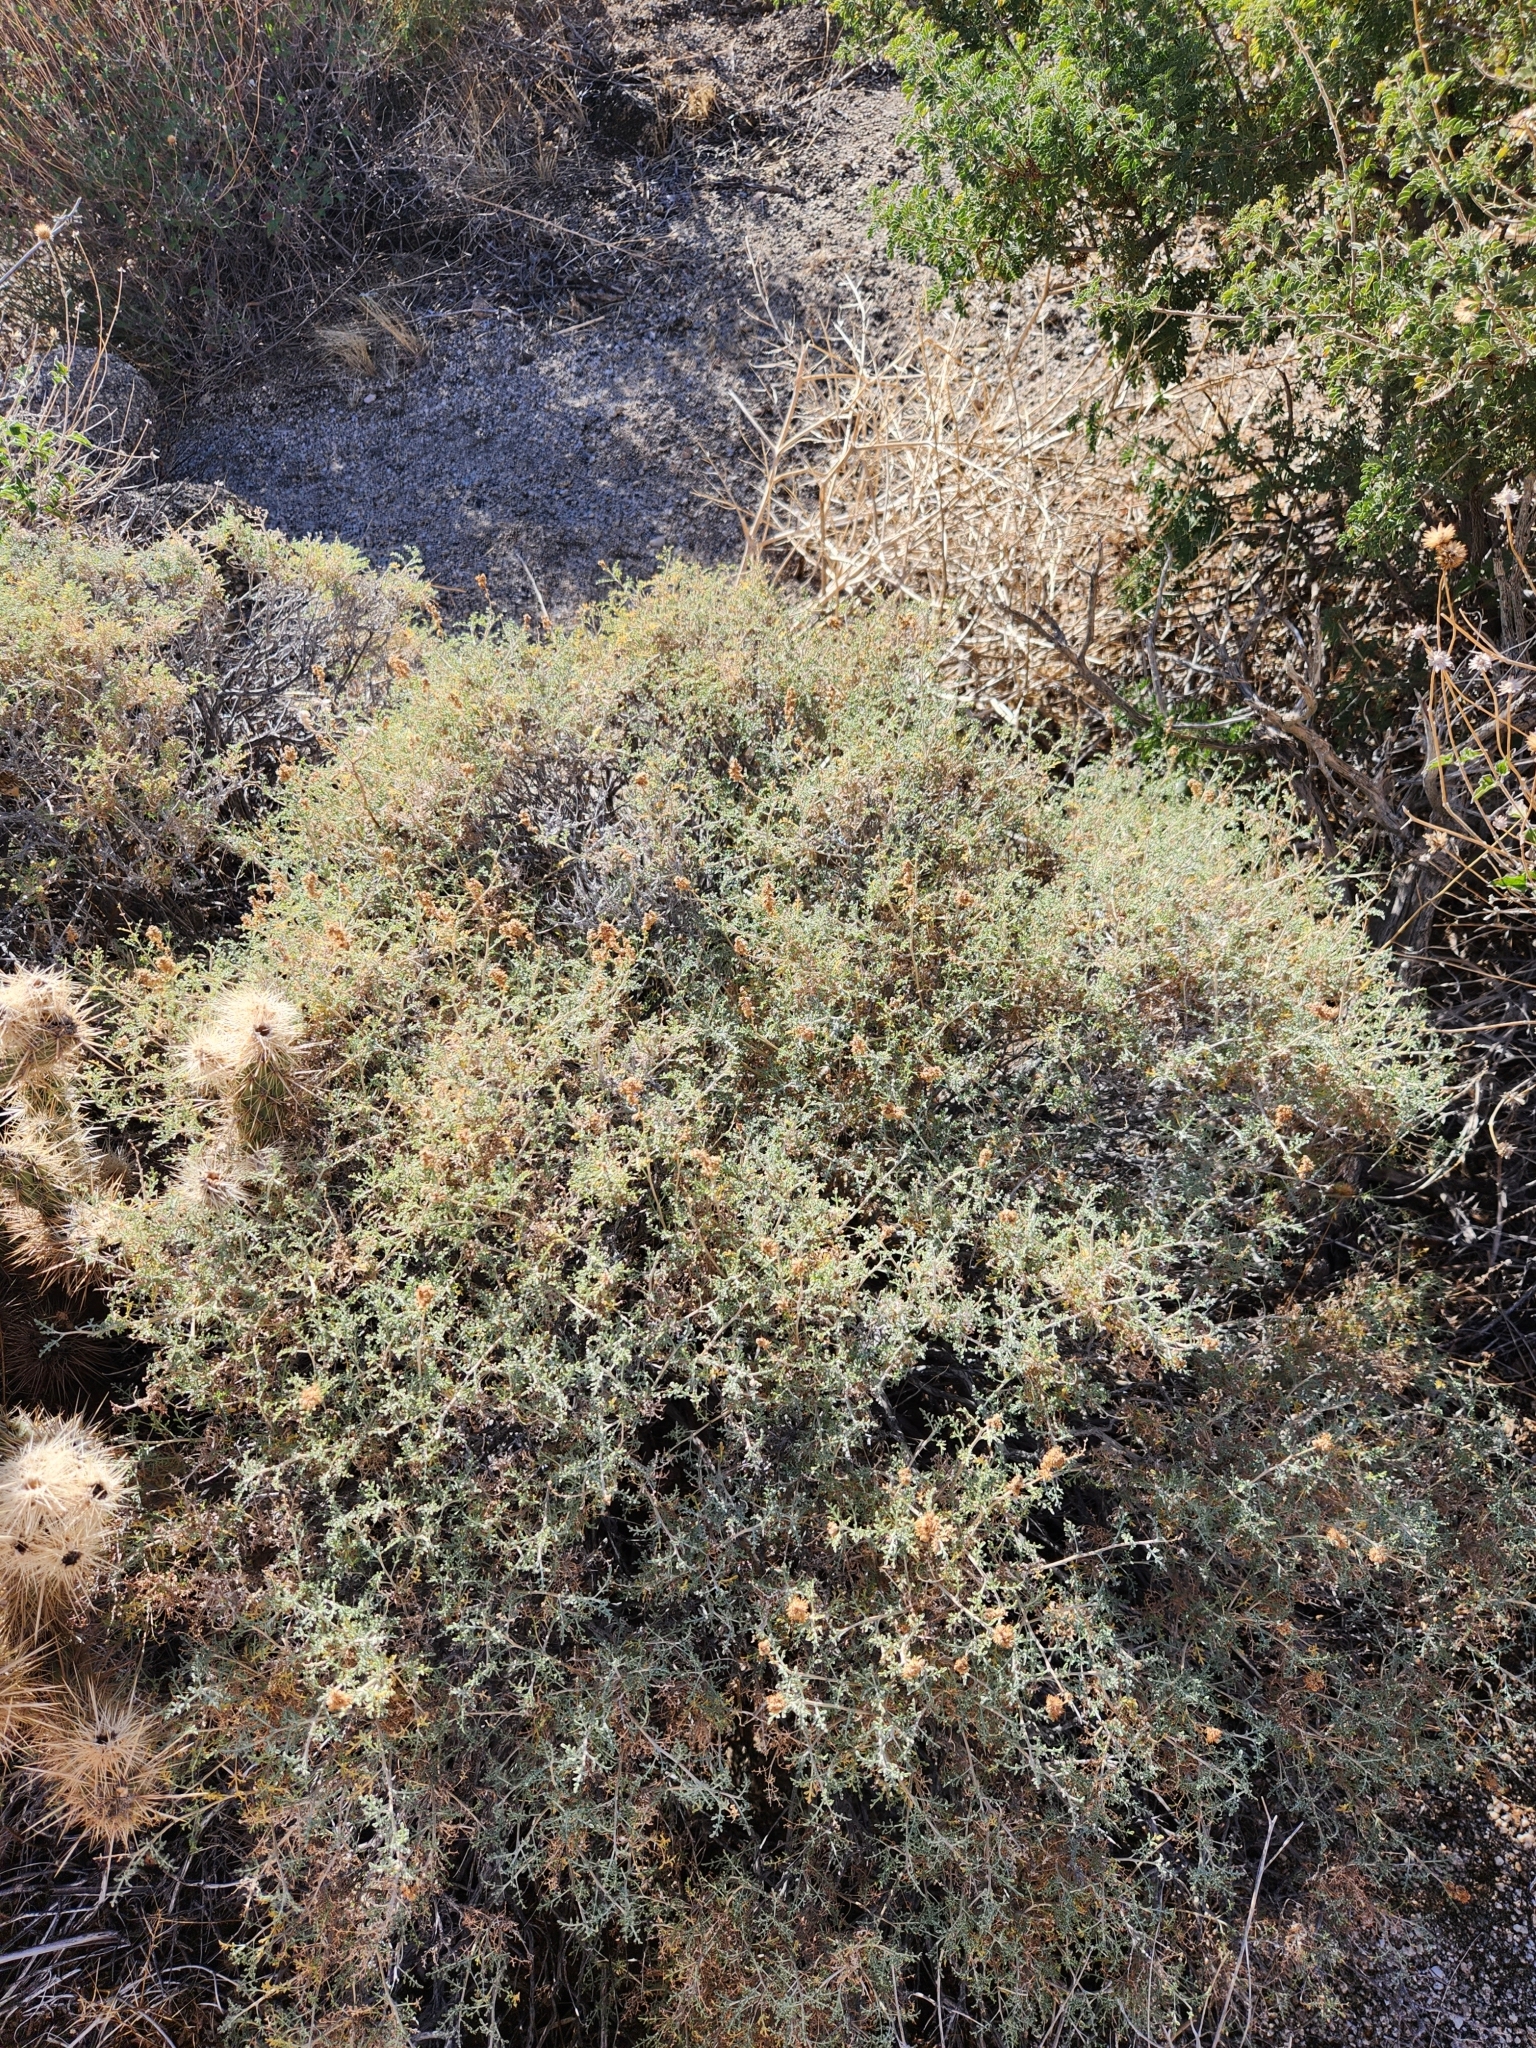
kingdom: Plantae
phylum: Tracheophyta
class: Magnoliopsida
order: Asterales
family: Asteraceae
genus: Ambrosia
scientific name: Ambrosia dumosa
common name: Bur-sage
